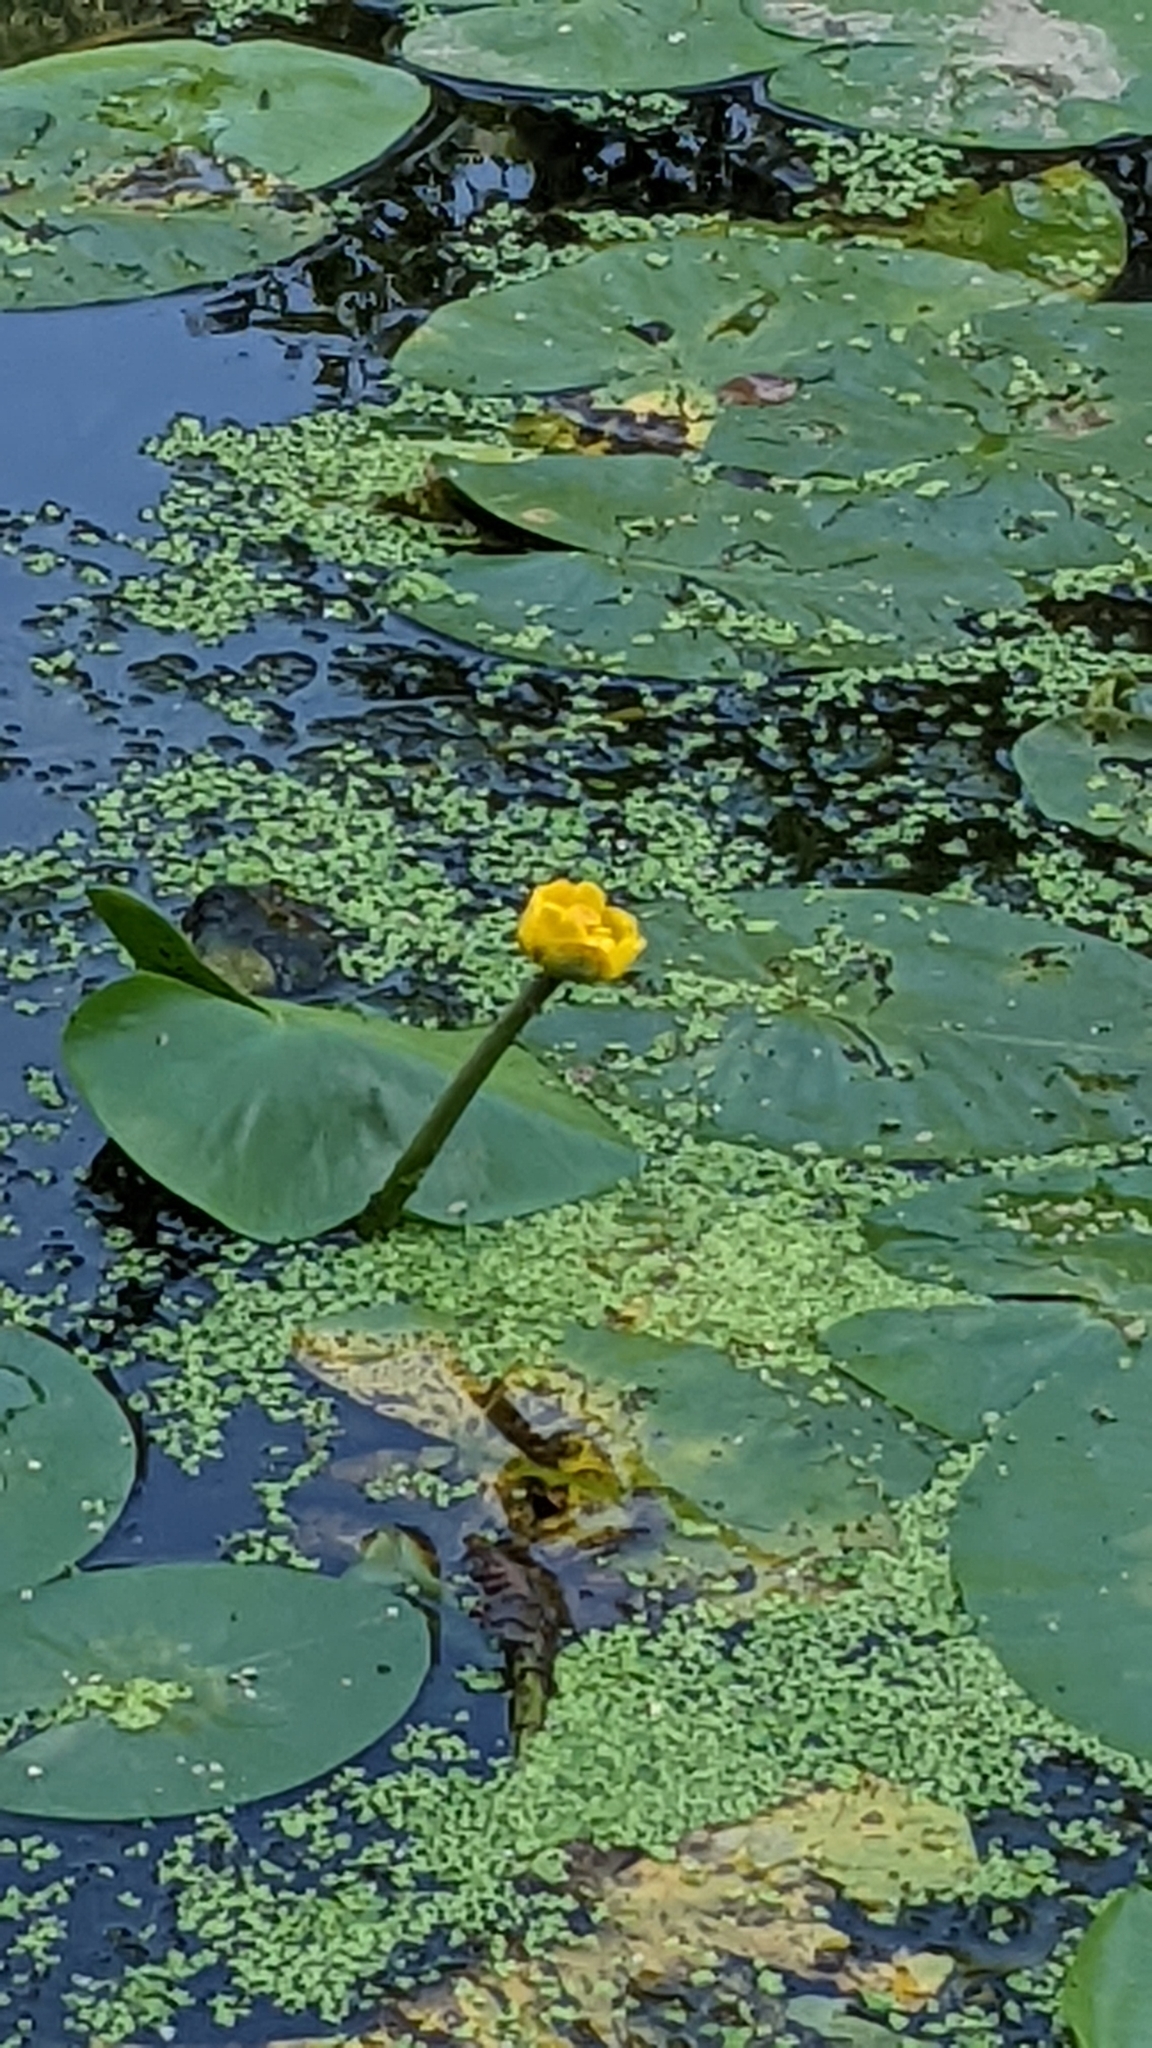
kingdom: Plantae
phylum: Tracheophyta
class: Magnoliopsida
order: Nymphaeales
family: Nymphaeaceae
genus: Nuphar
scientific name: Nuphar lutea
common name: Yellow water-lily
